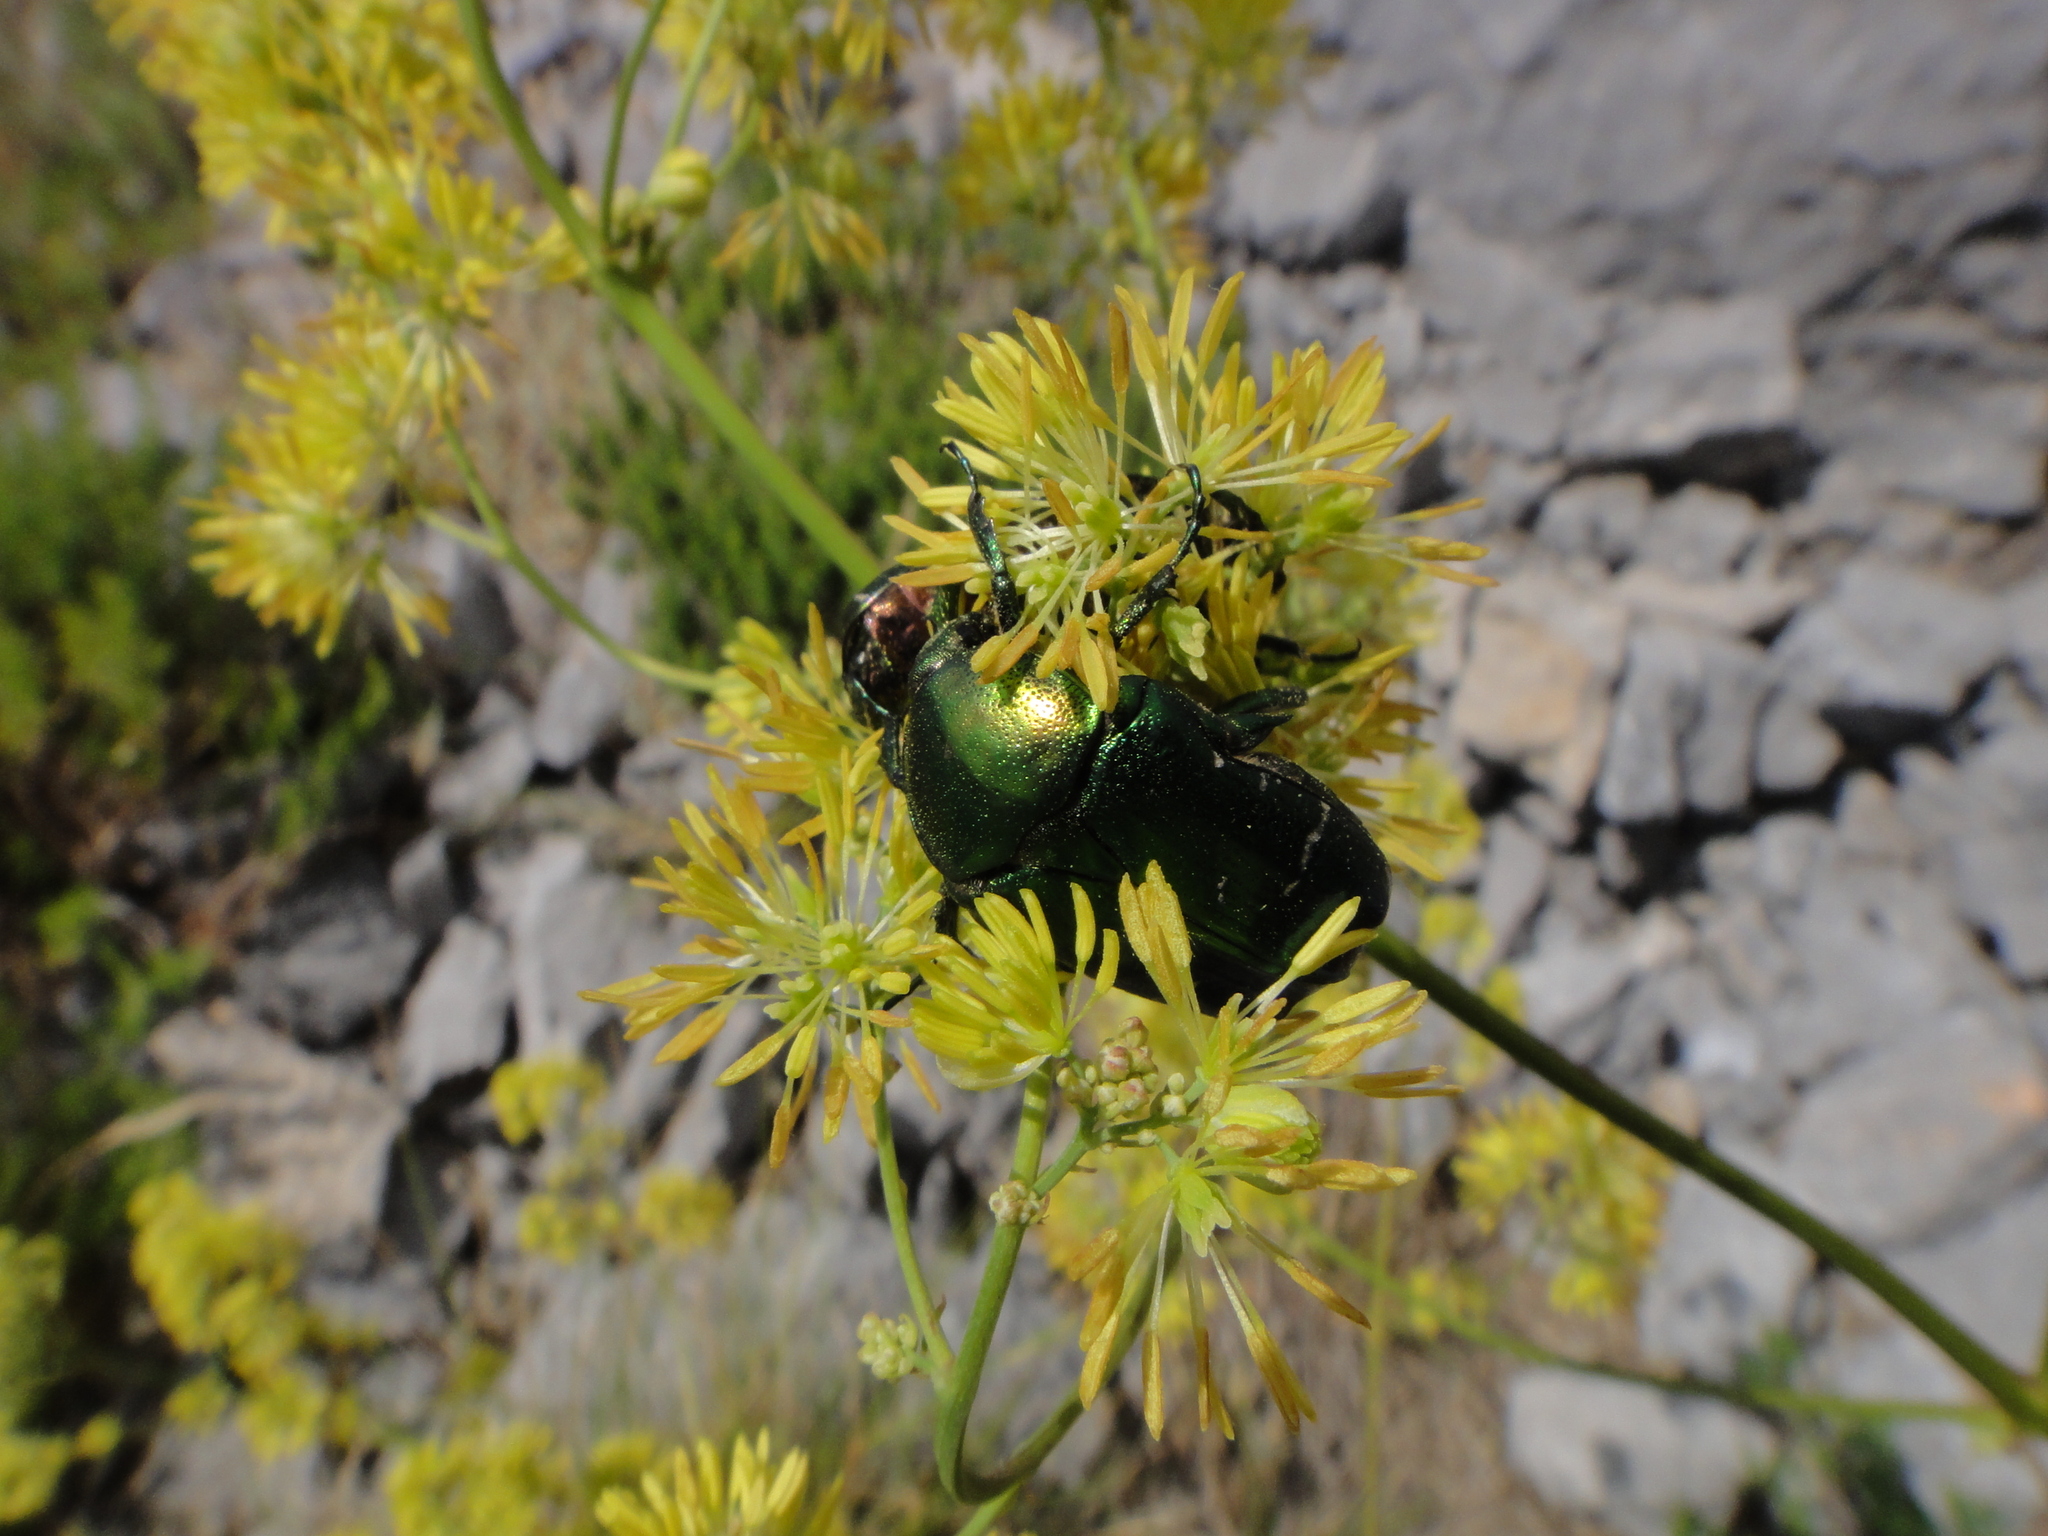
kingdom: Plantae
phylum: Tracheophyta
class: Magnoliopsida
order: Ranunculales
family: Ranunculaceae
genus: Thalictrum
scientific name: Thalictrum foetidum
